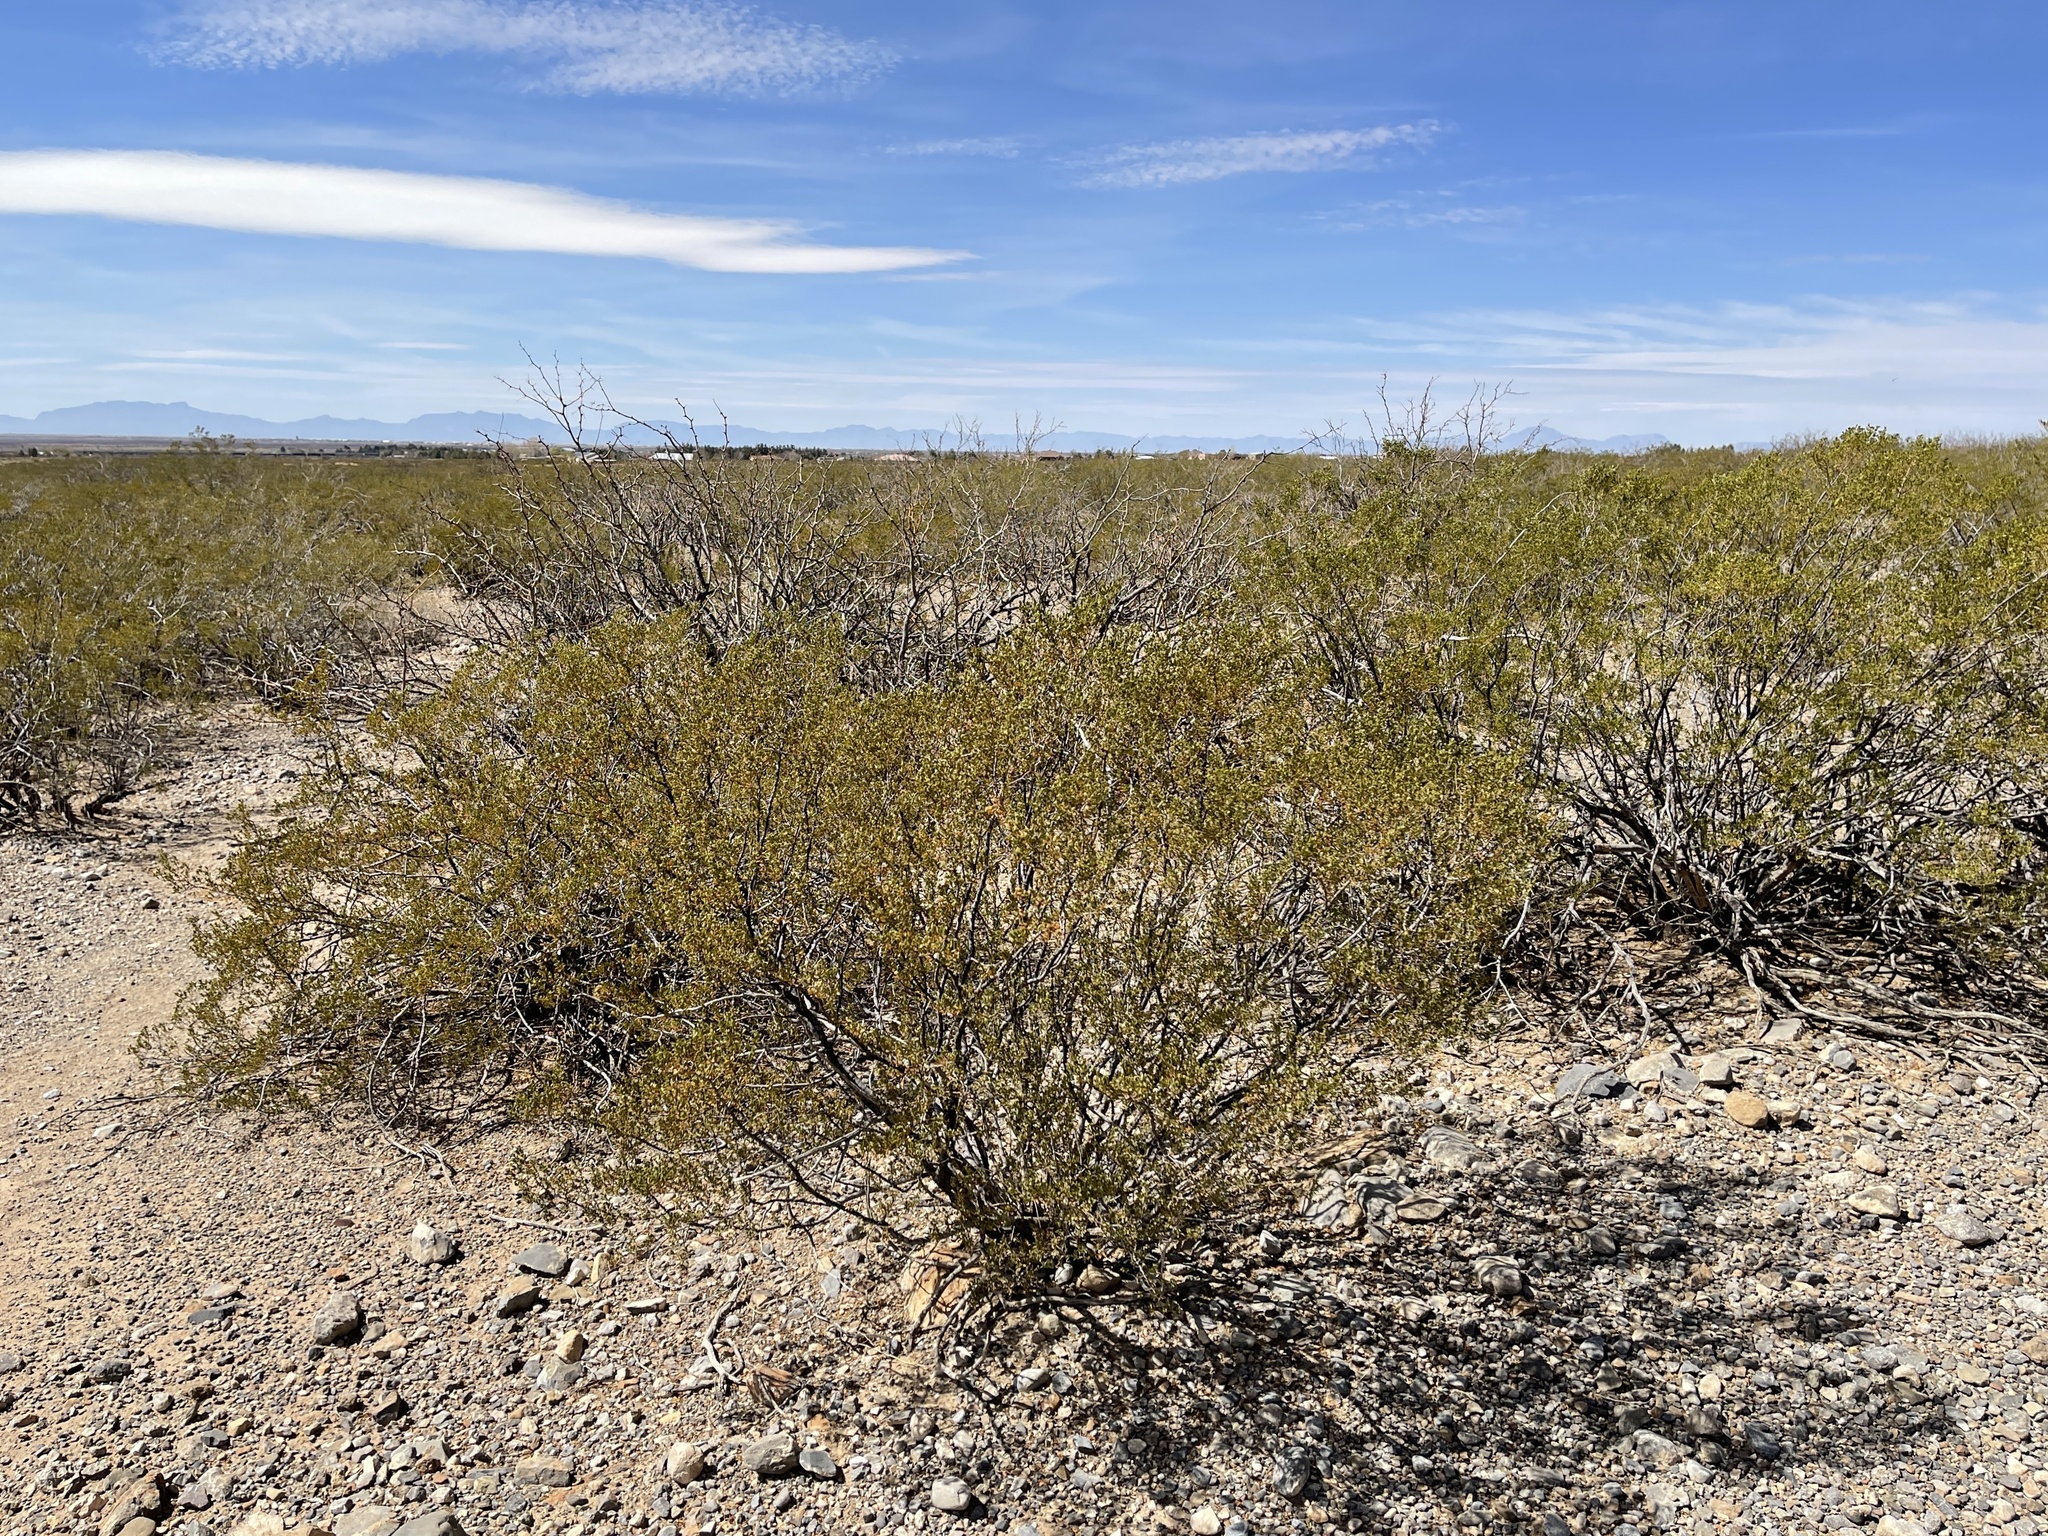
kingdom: Plantae
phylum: Tracheophyta
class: Magnoliopsida
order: Zygophyllales
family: Zygophyllaceae
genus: Larrea
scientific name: Larrea tridentata
